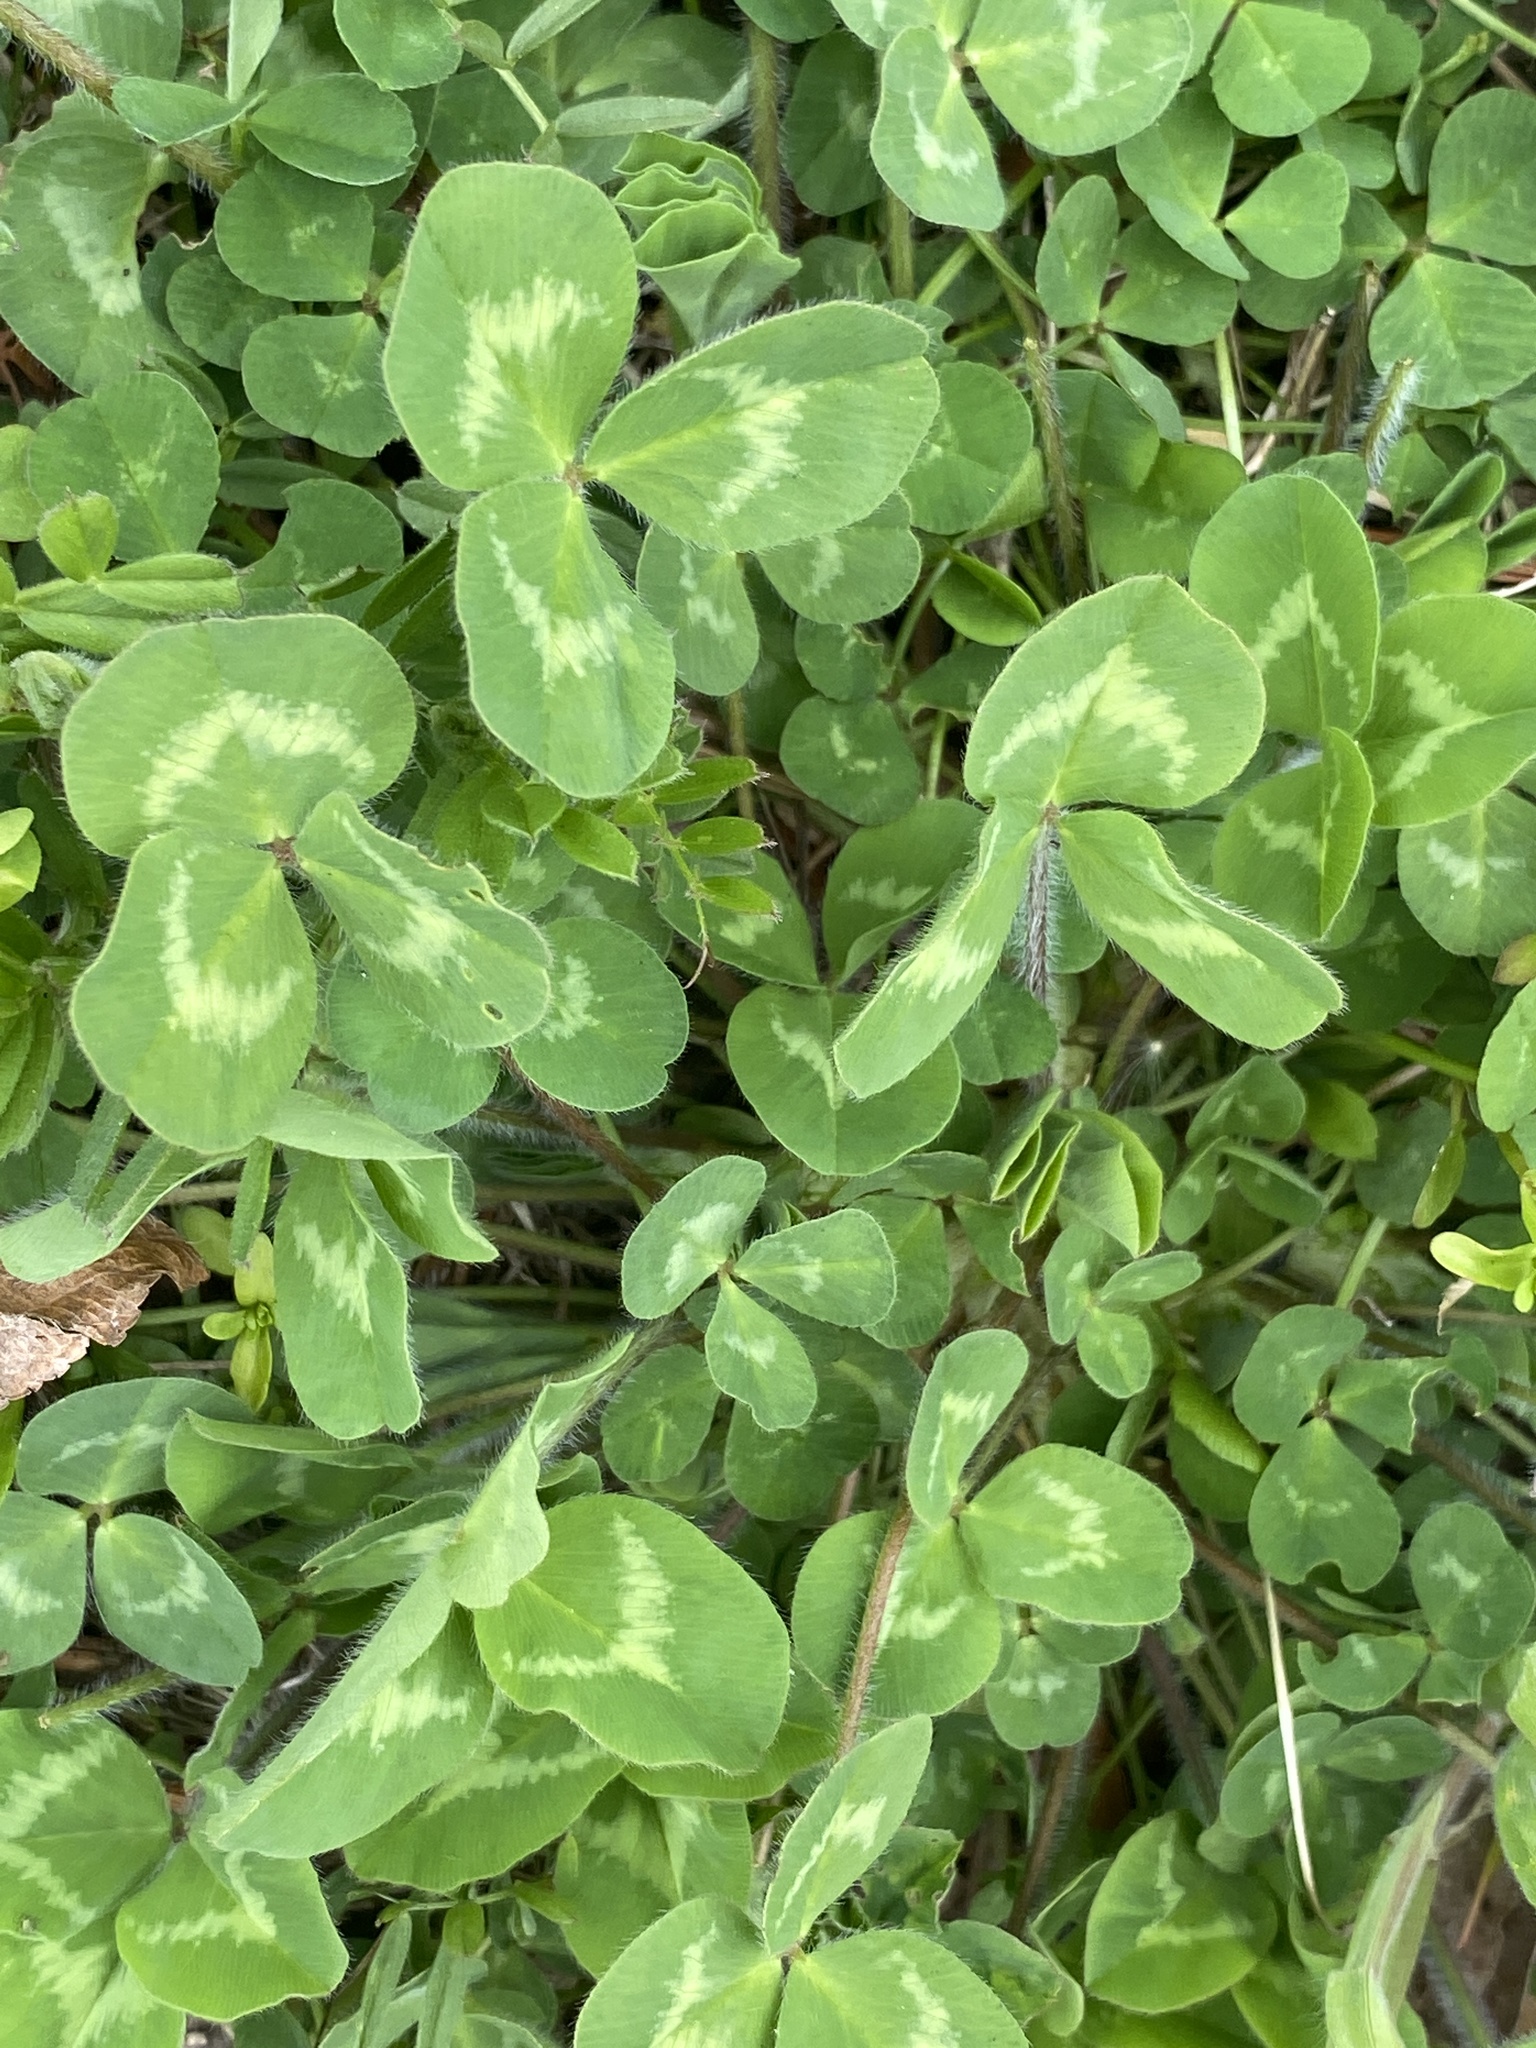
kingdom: Plantae
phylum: Tracheophyta
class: Magnoliopsida
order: Fabales
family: Fabaceae
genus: Trifolium
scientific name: Trifolium pratense
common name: Red clover
